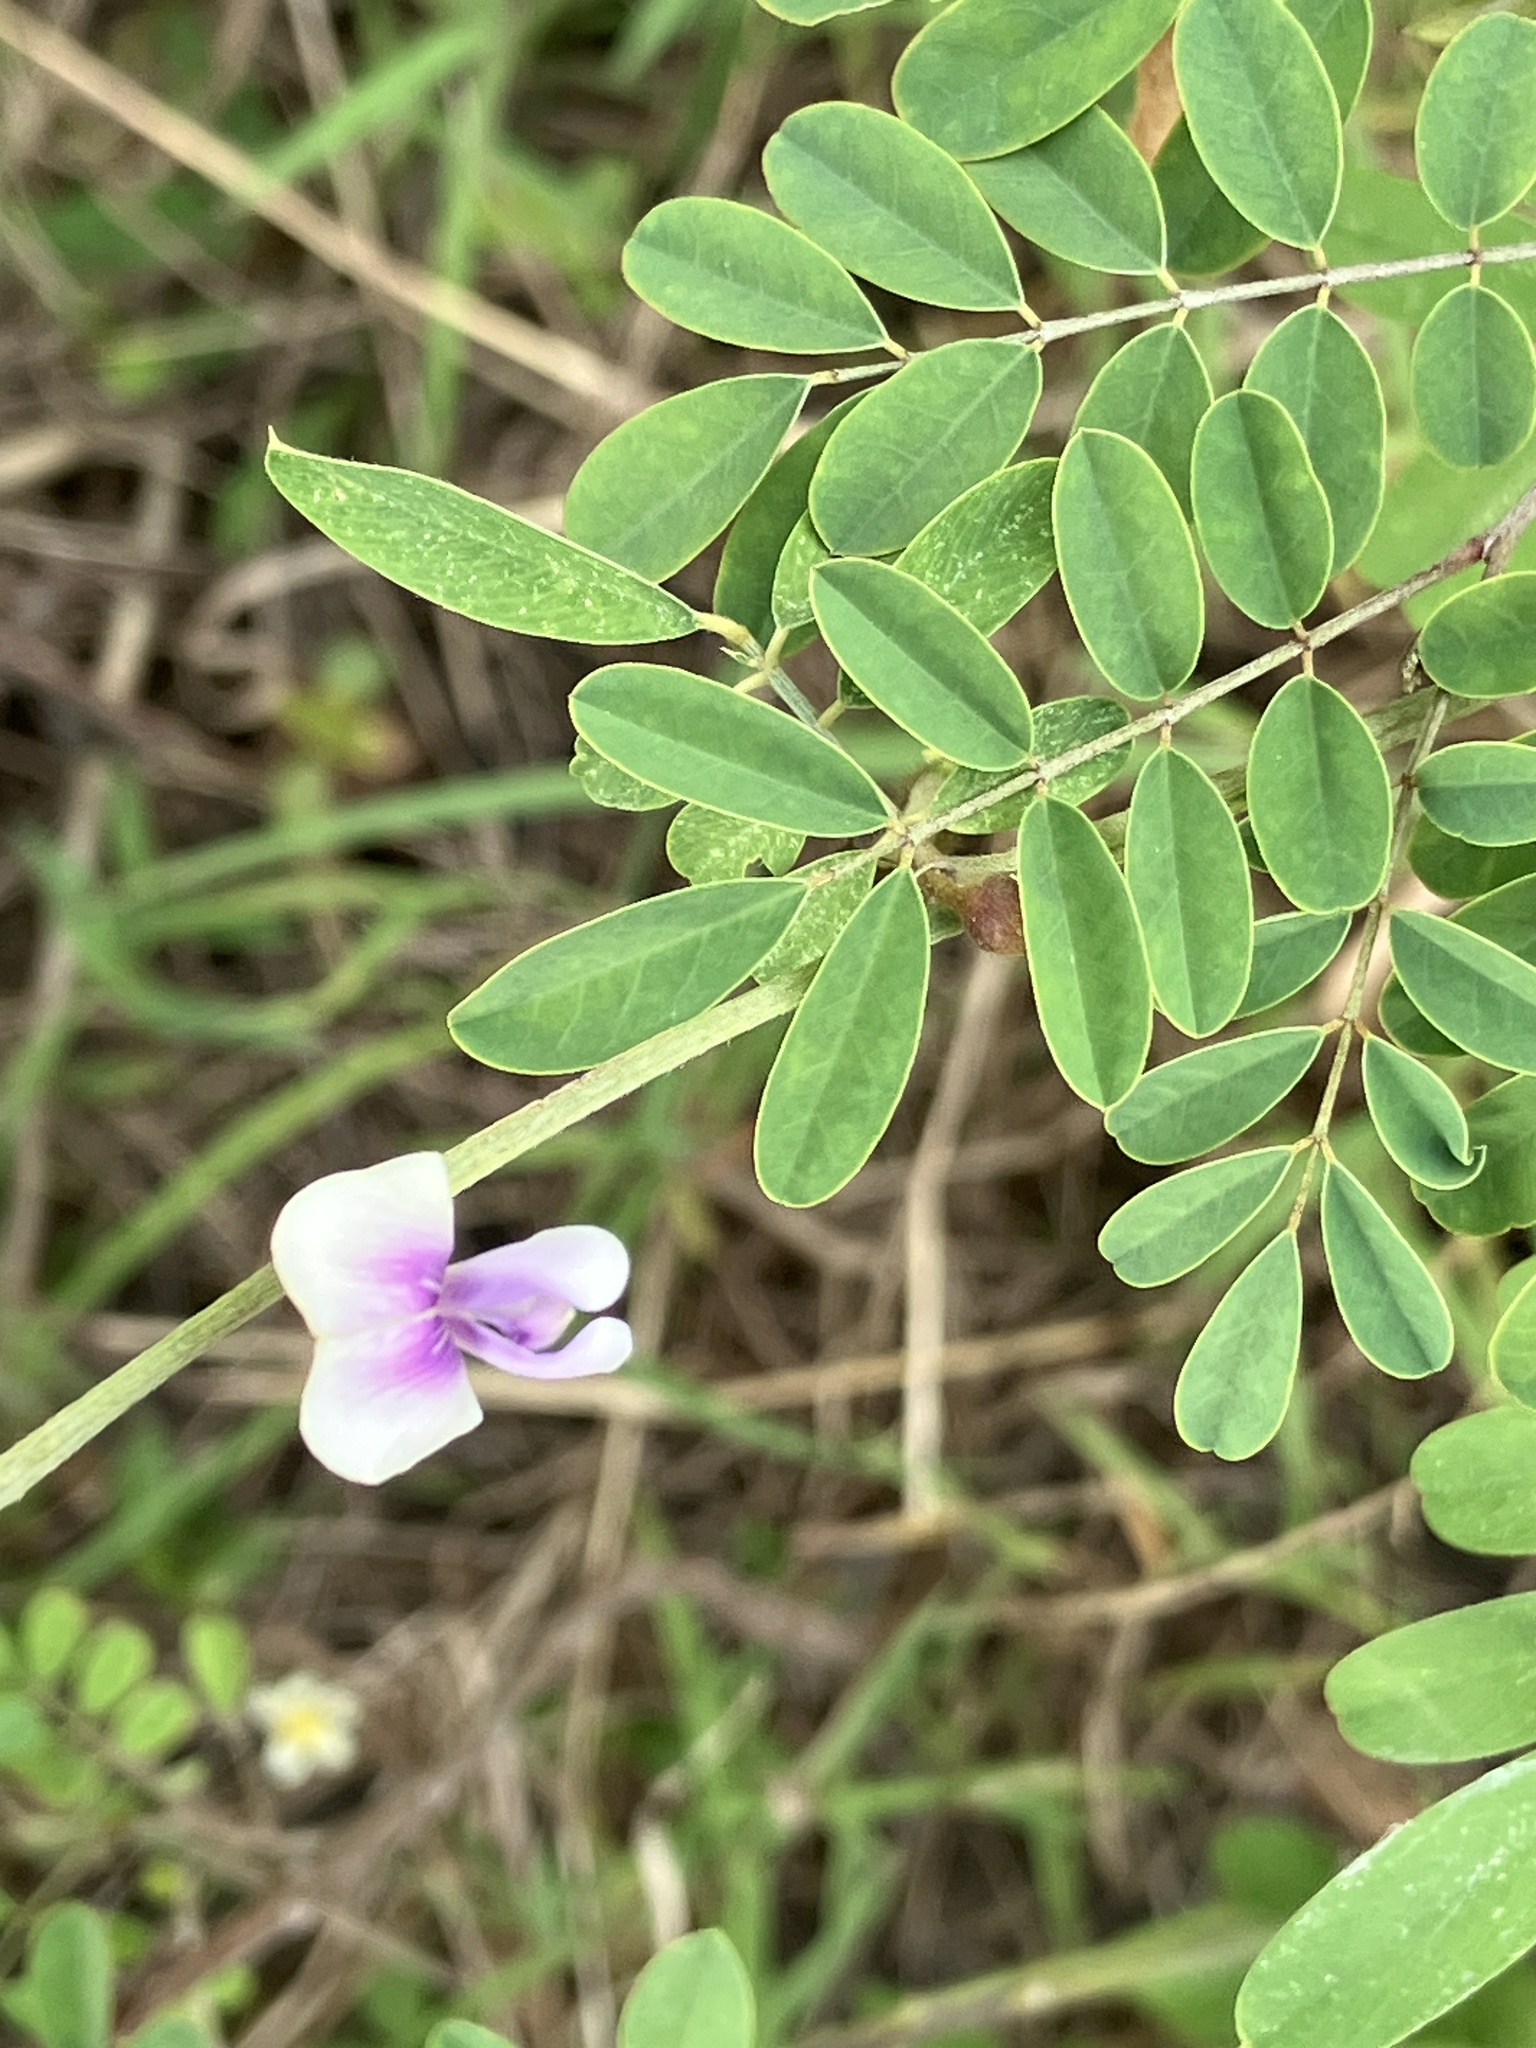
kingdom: Plantae
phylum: Tracheophyta
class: Magnoliopsida
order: Fabales
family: Fabaceae
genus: Tephrosia
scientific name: Tephrosia cinerea
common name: Ashen hoarypea
